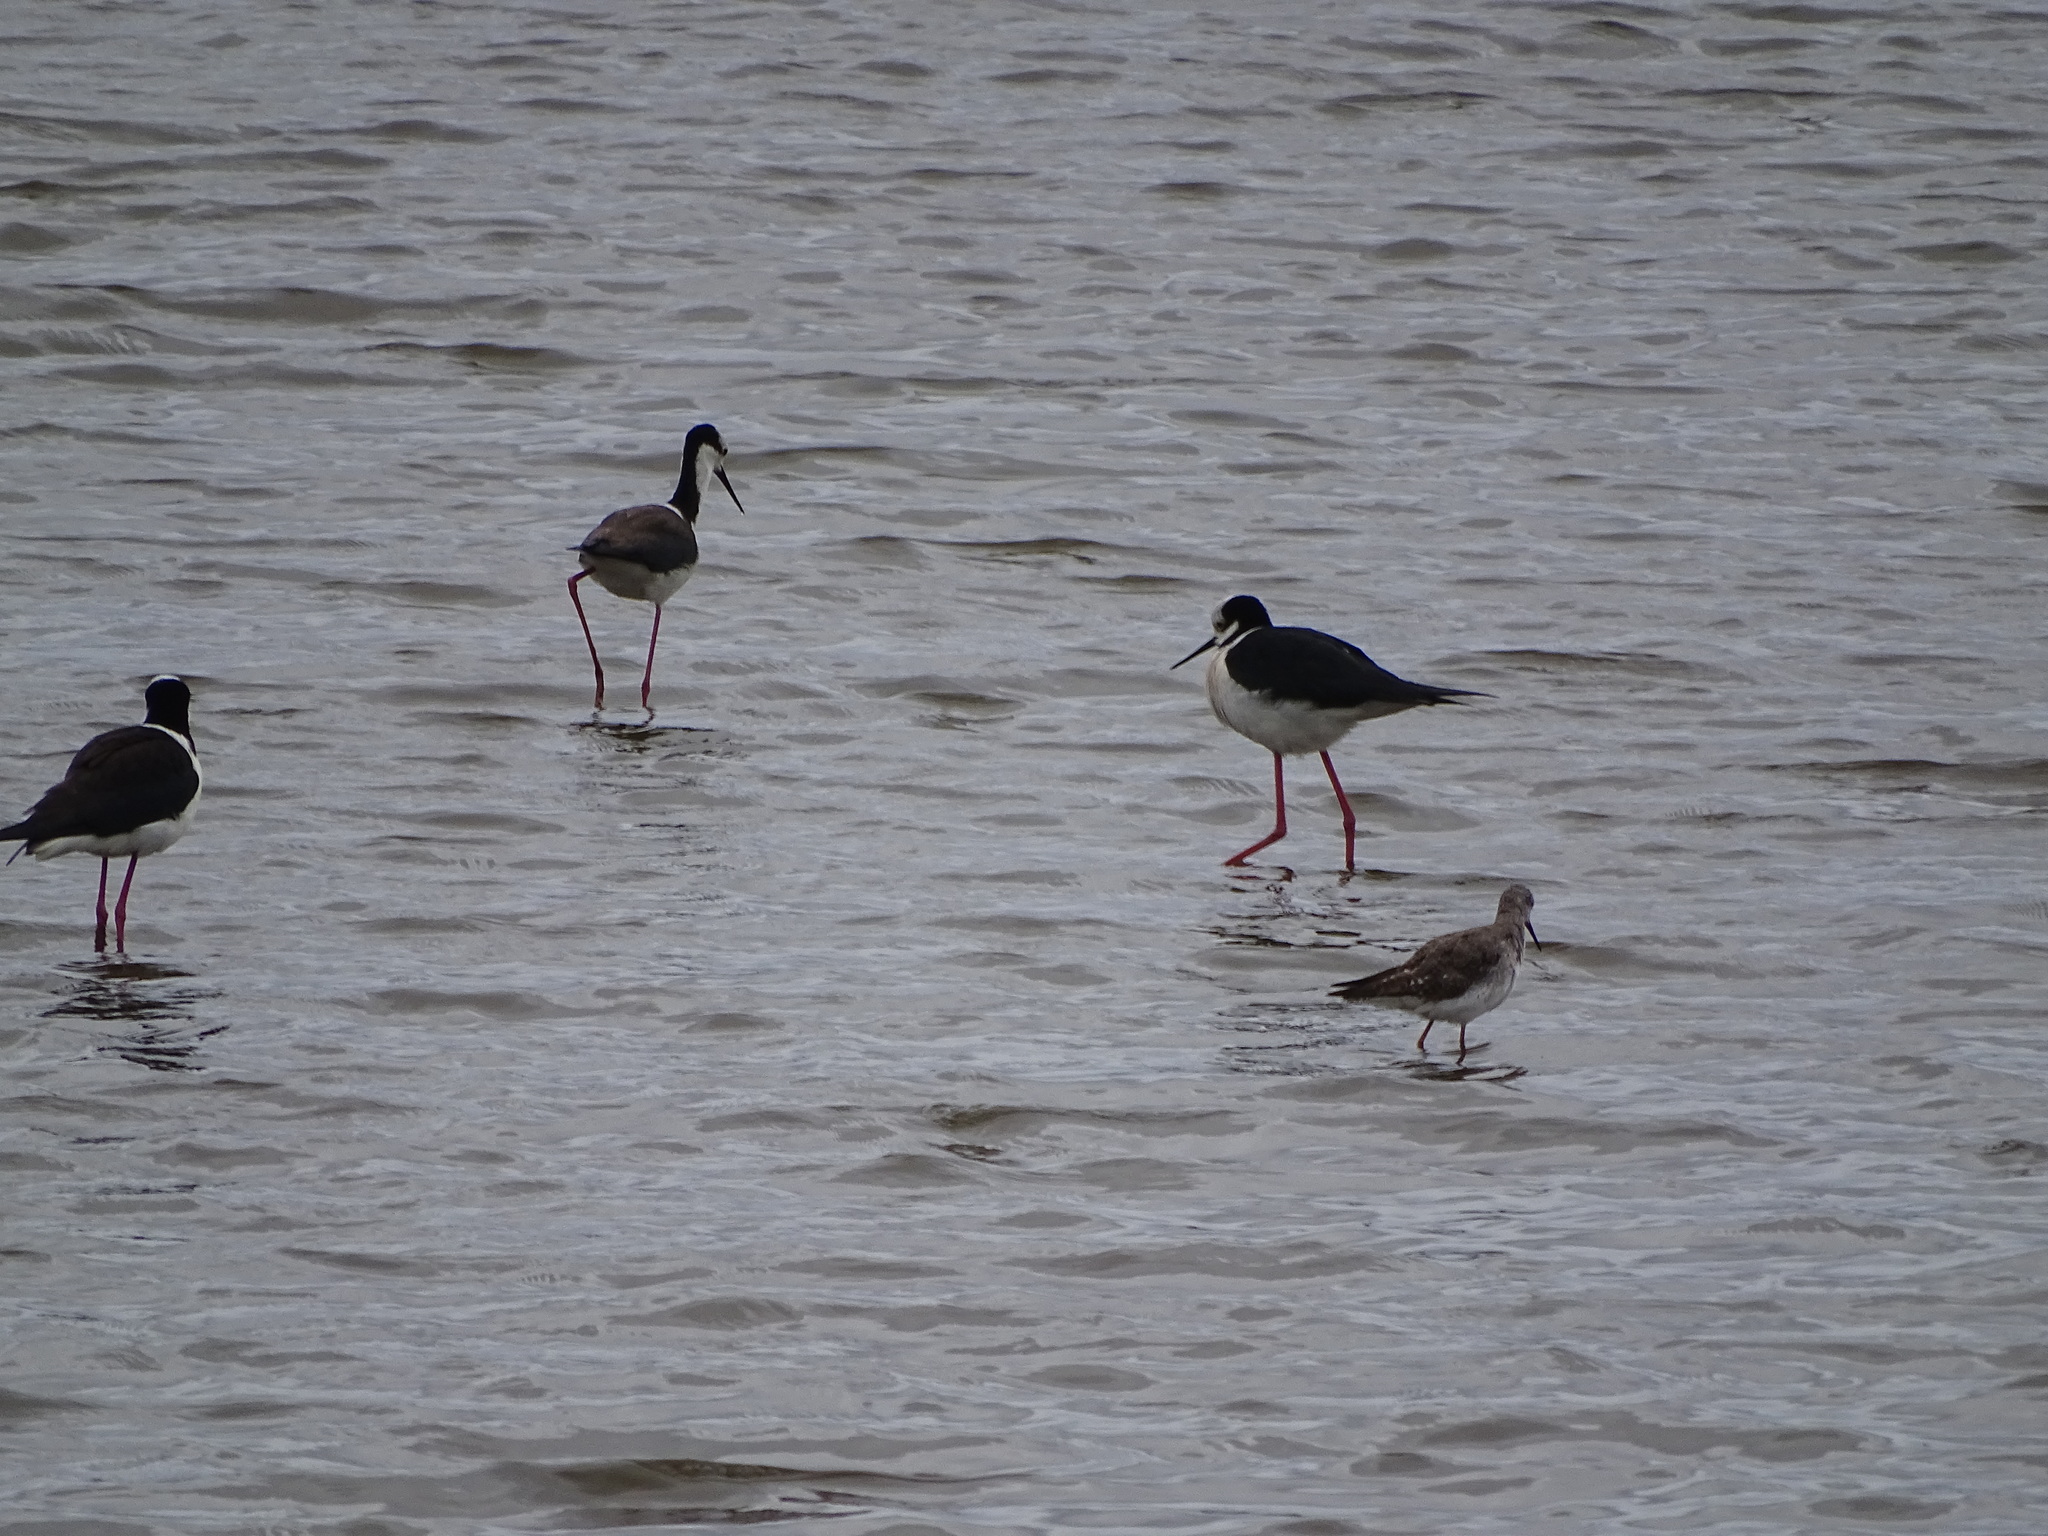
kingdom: Animalia
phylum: Chordata
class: Aves
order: Charadriiformes
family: Recurvirostridae
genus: Himantopus
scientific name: Himantopus mexicanus
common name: Black-necked stilt
